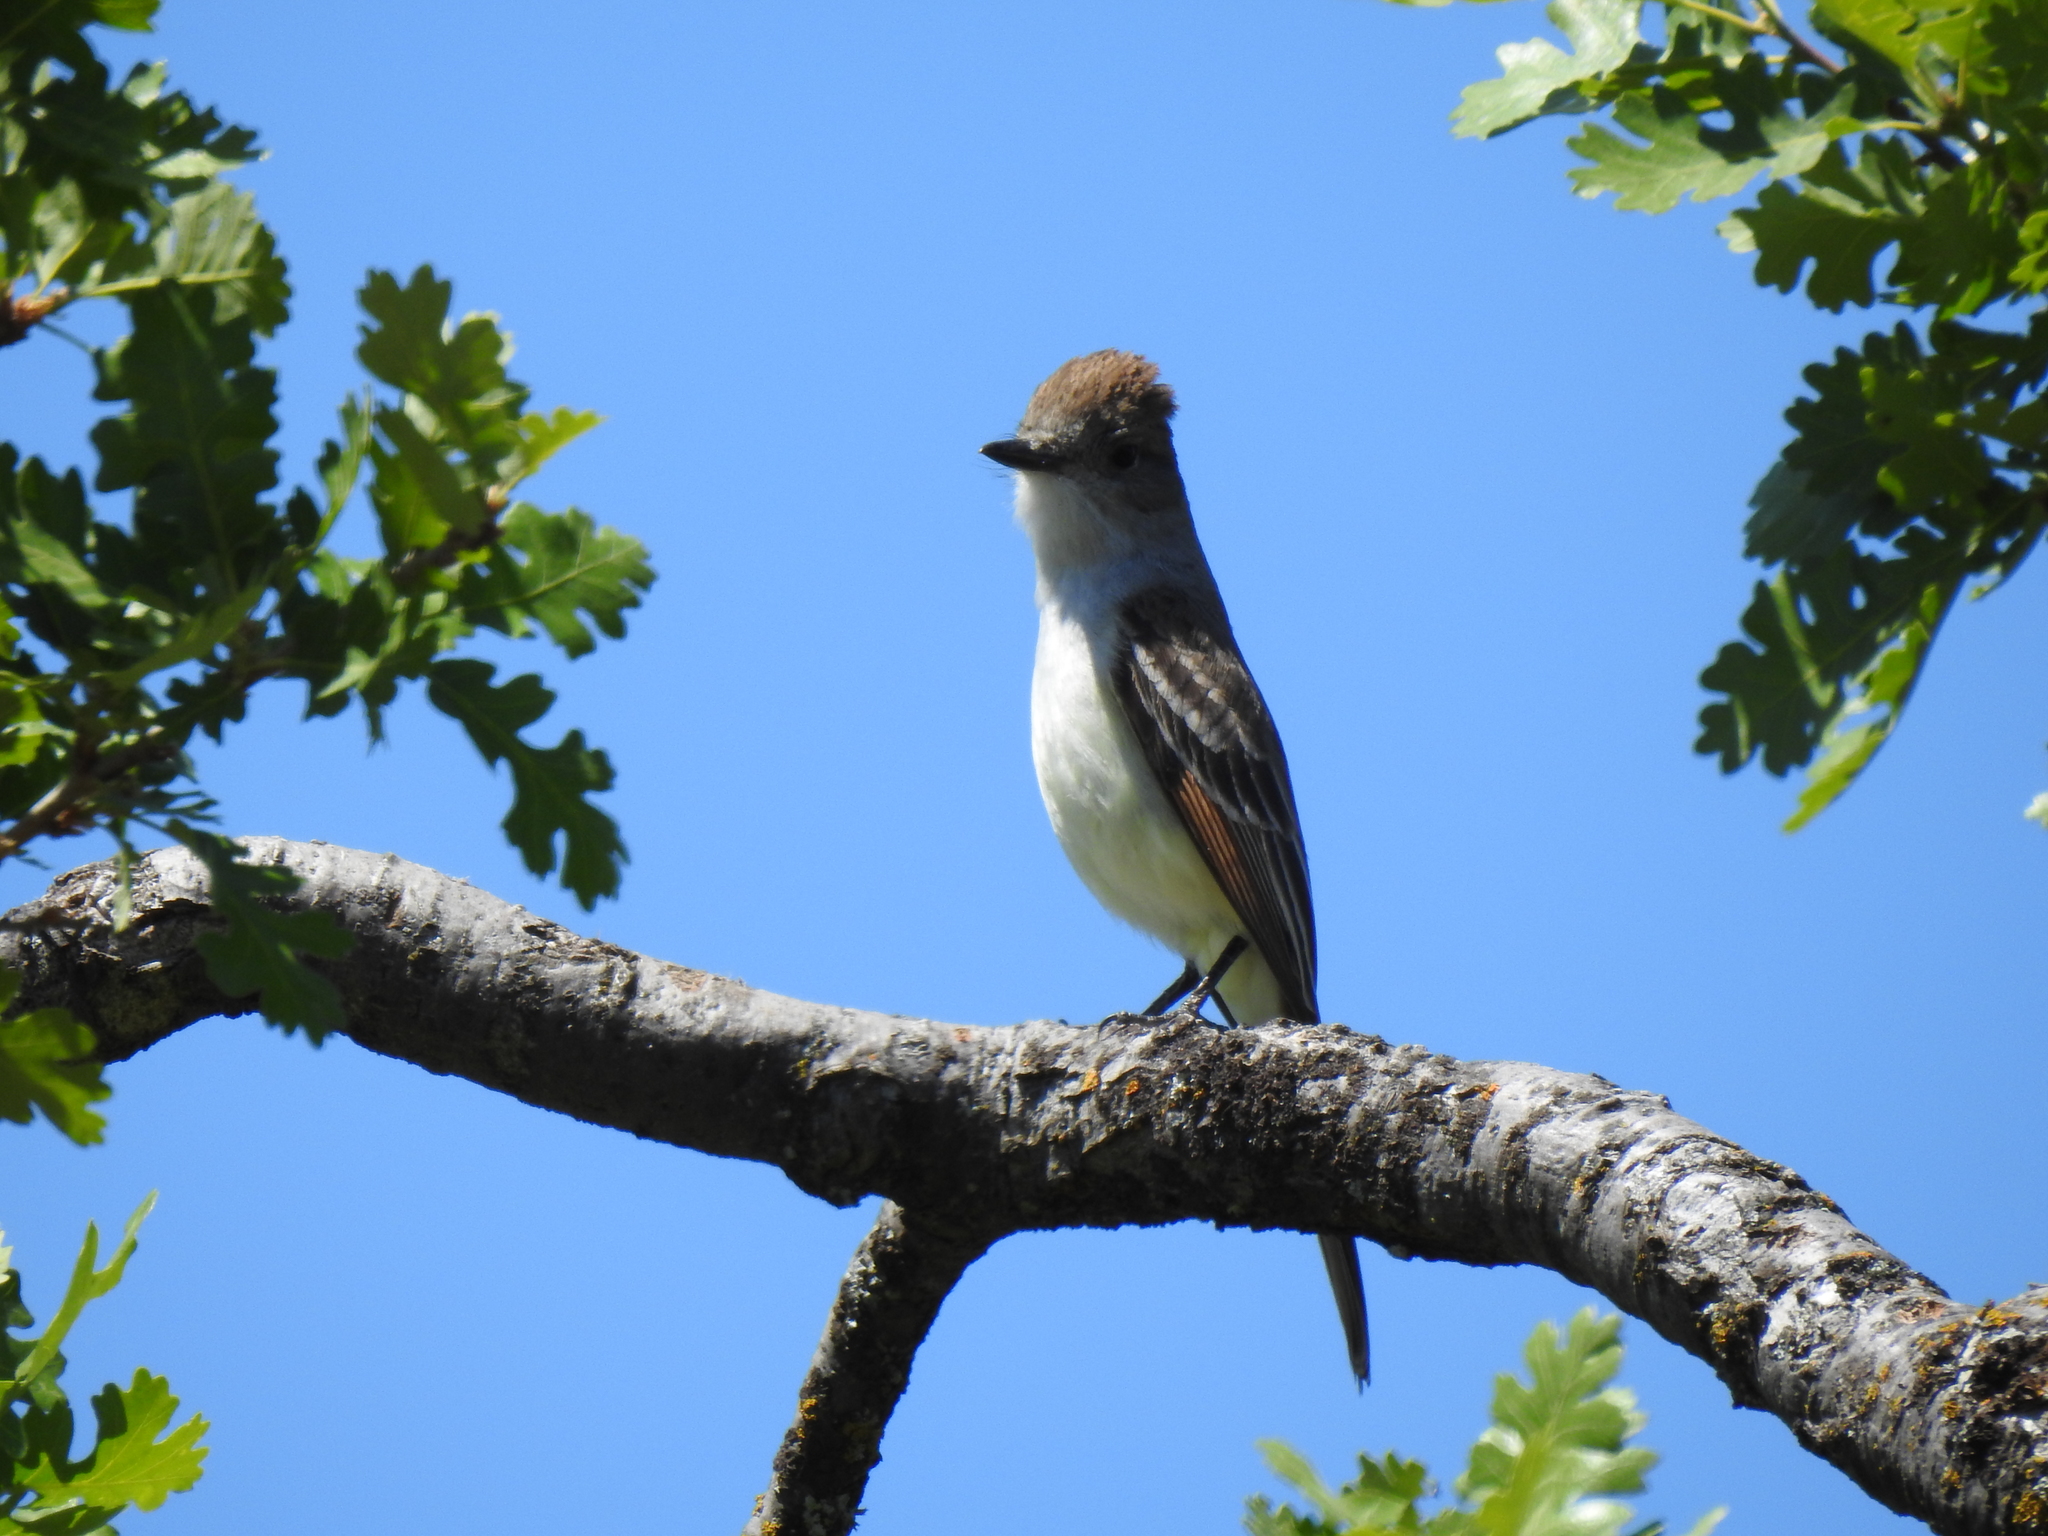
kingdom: Animalia
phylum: Chordata
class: Aves
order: Passeriformes
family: Tyrannidae
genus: Myiarchus
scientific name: Myiarchus cinerascens
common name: Ash-throated flycatcher
